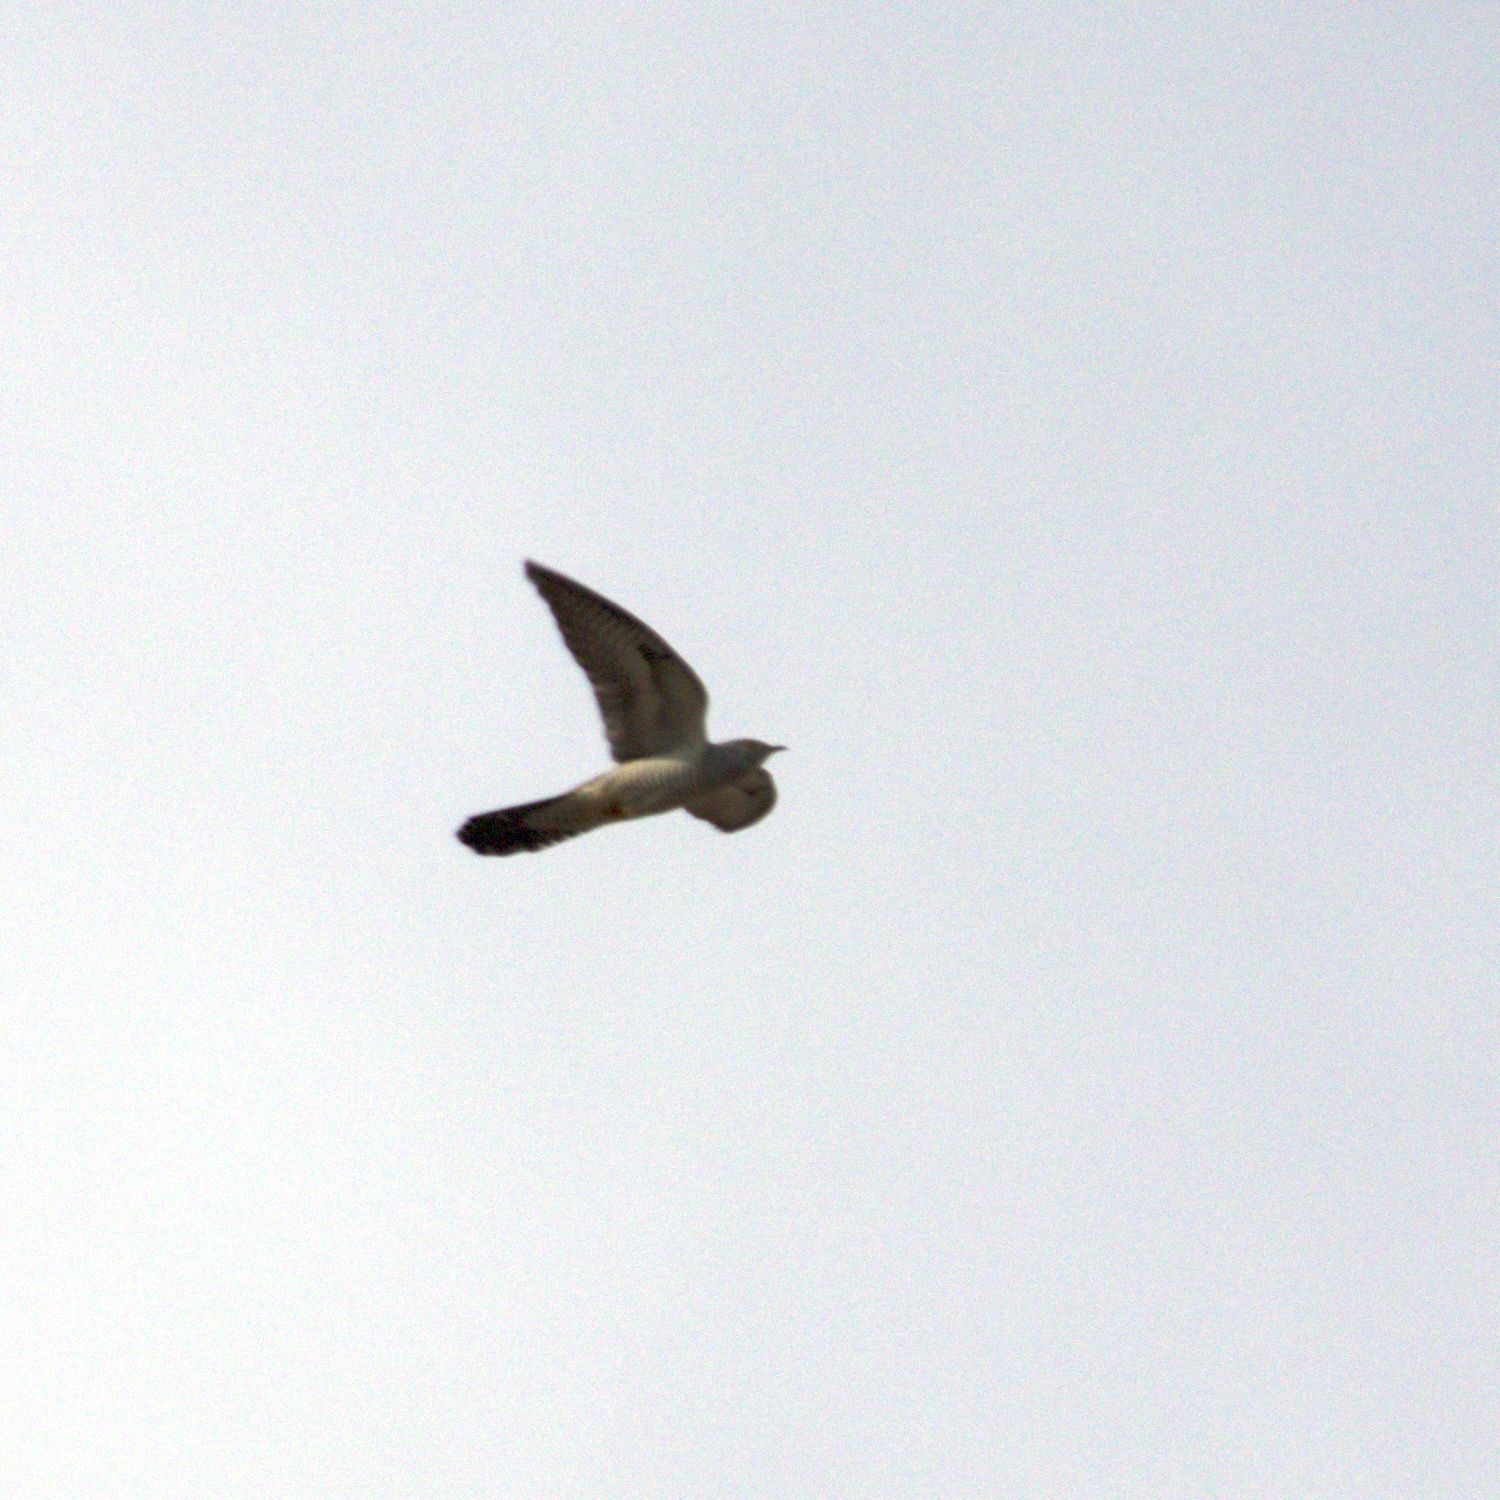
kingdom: Animalia
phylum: Chordata
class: Aves
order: Cuculiformes
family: Cuculidae
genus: Cuculus
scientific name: Cuculus canorus
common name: Common cuckoo
